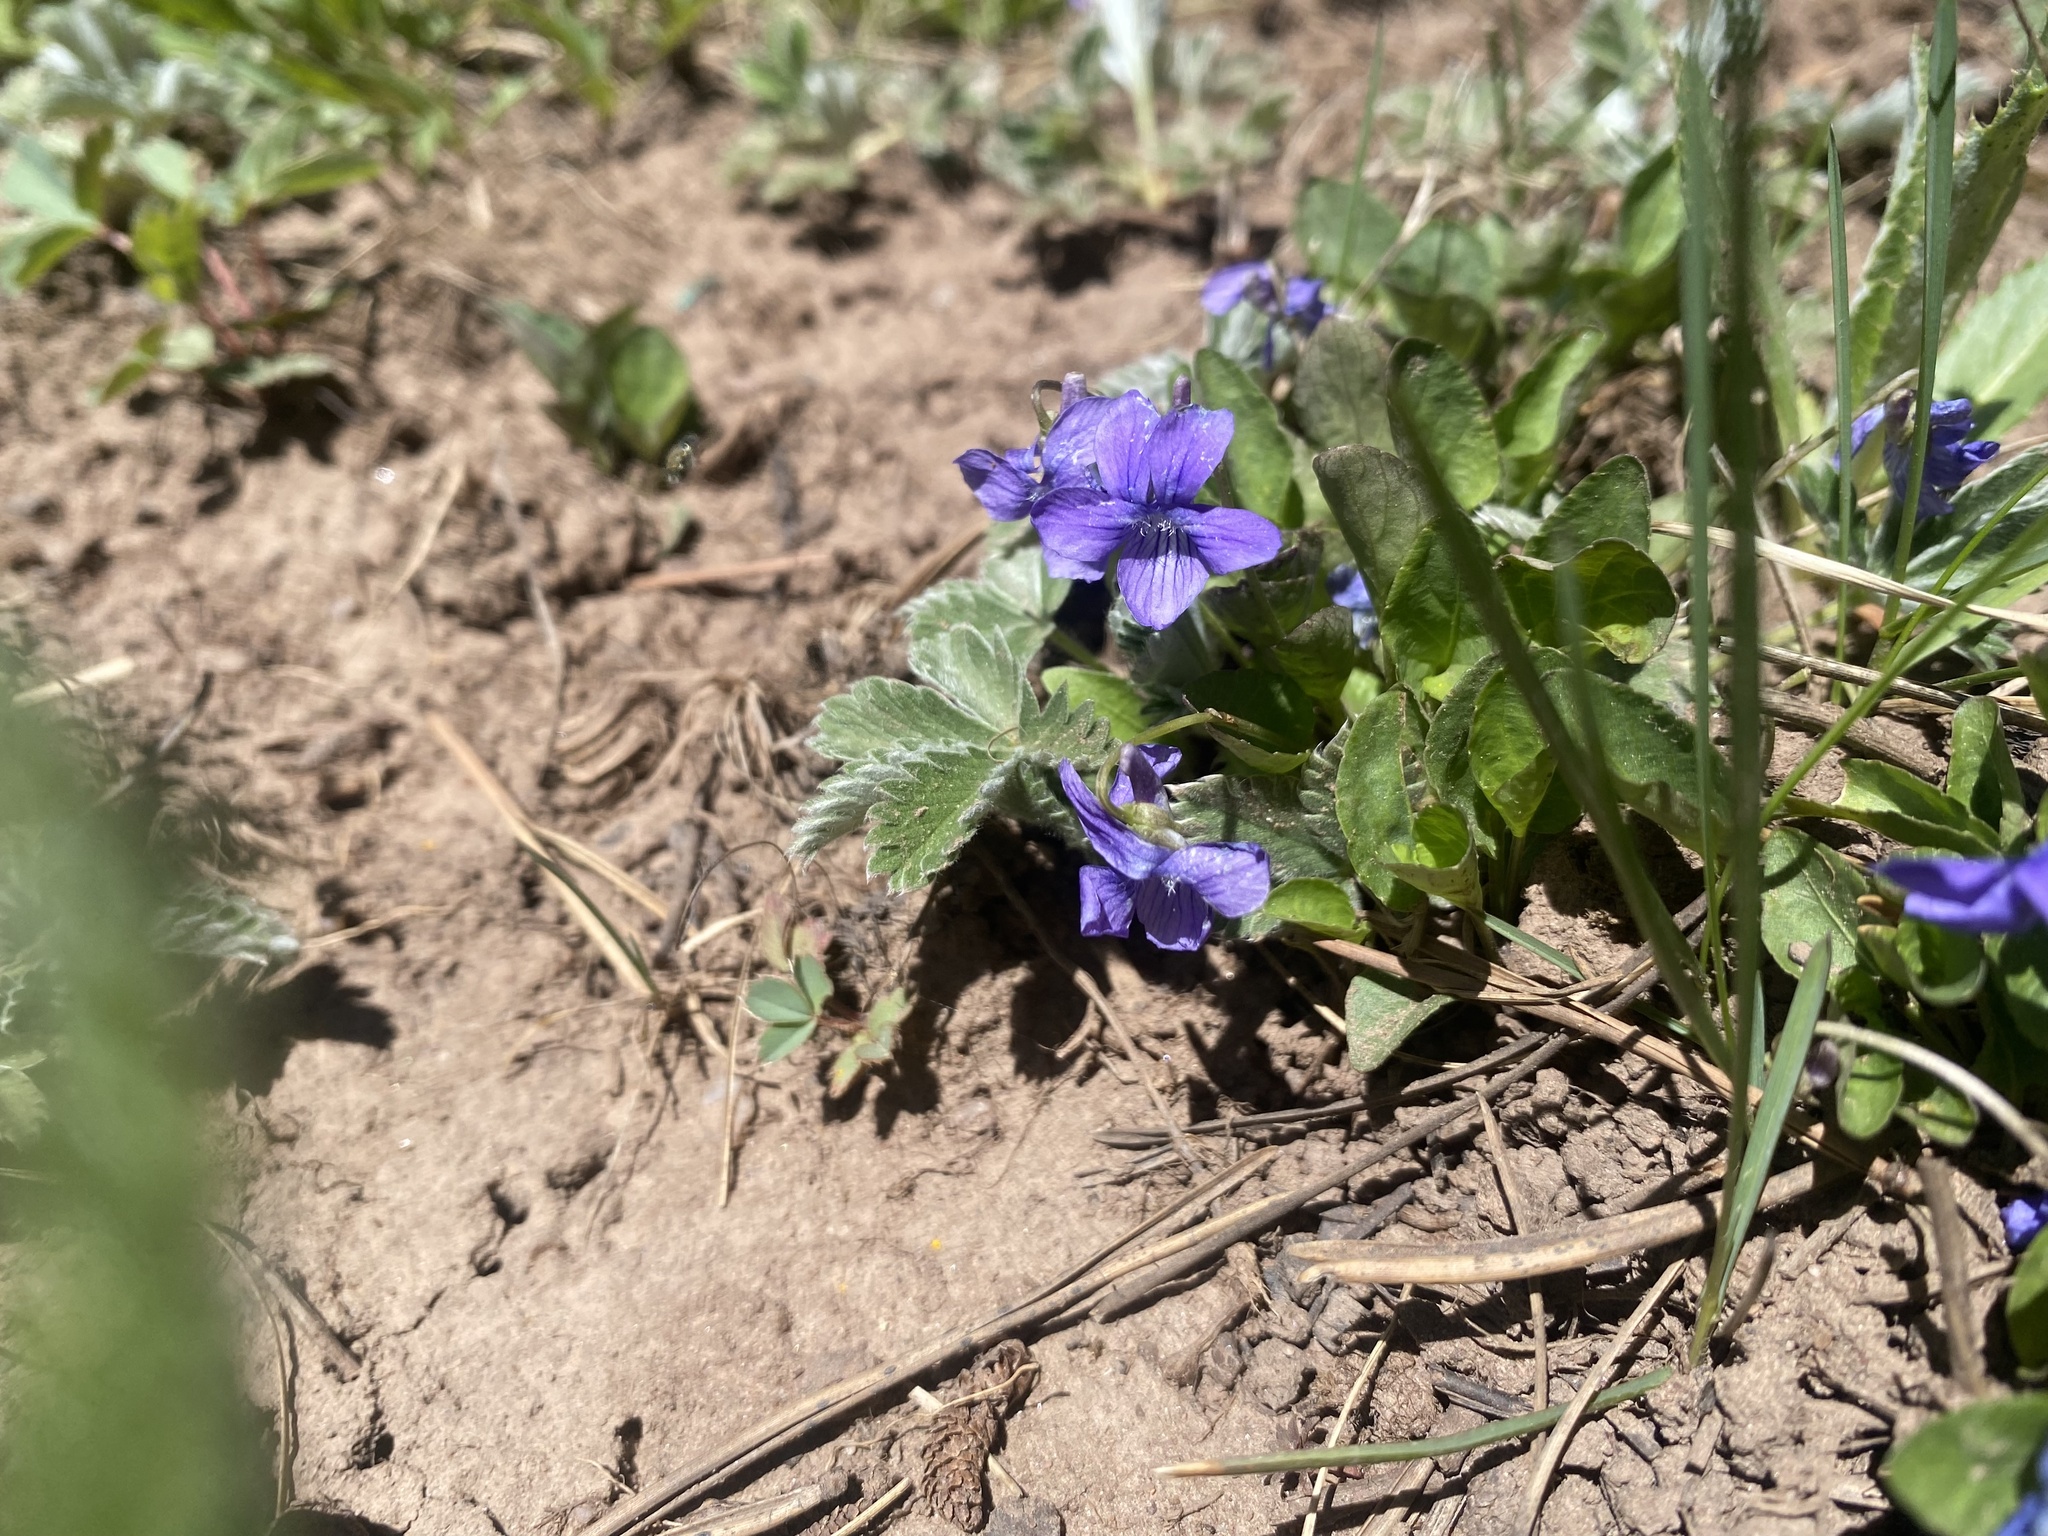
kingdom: Plantae
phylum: Tracheophyta
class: Magnoliopsida
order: Malpighiales
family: Violaceae
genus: Viola
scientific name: Viola adunca
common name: Sand violet
